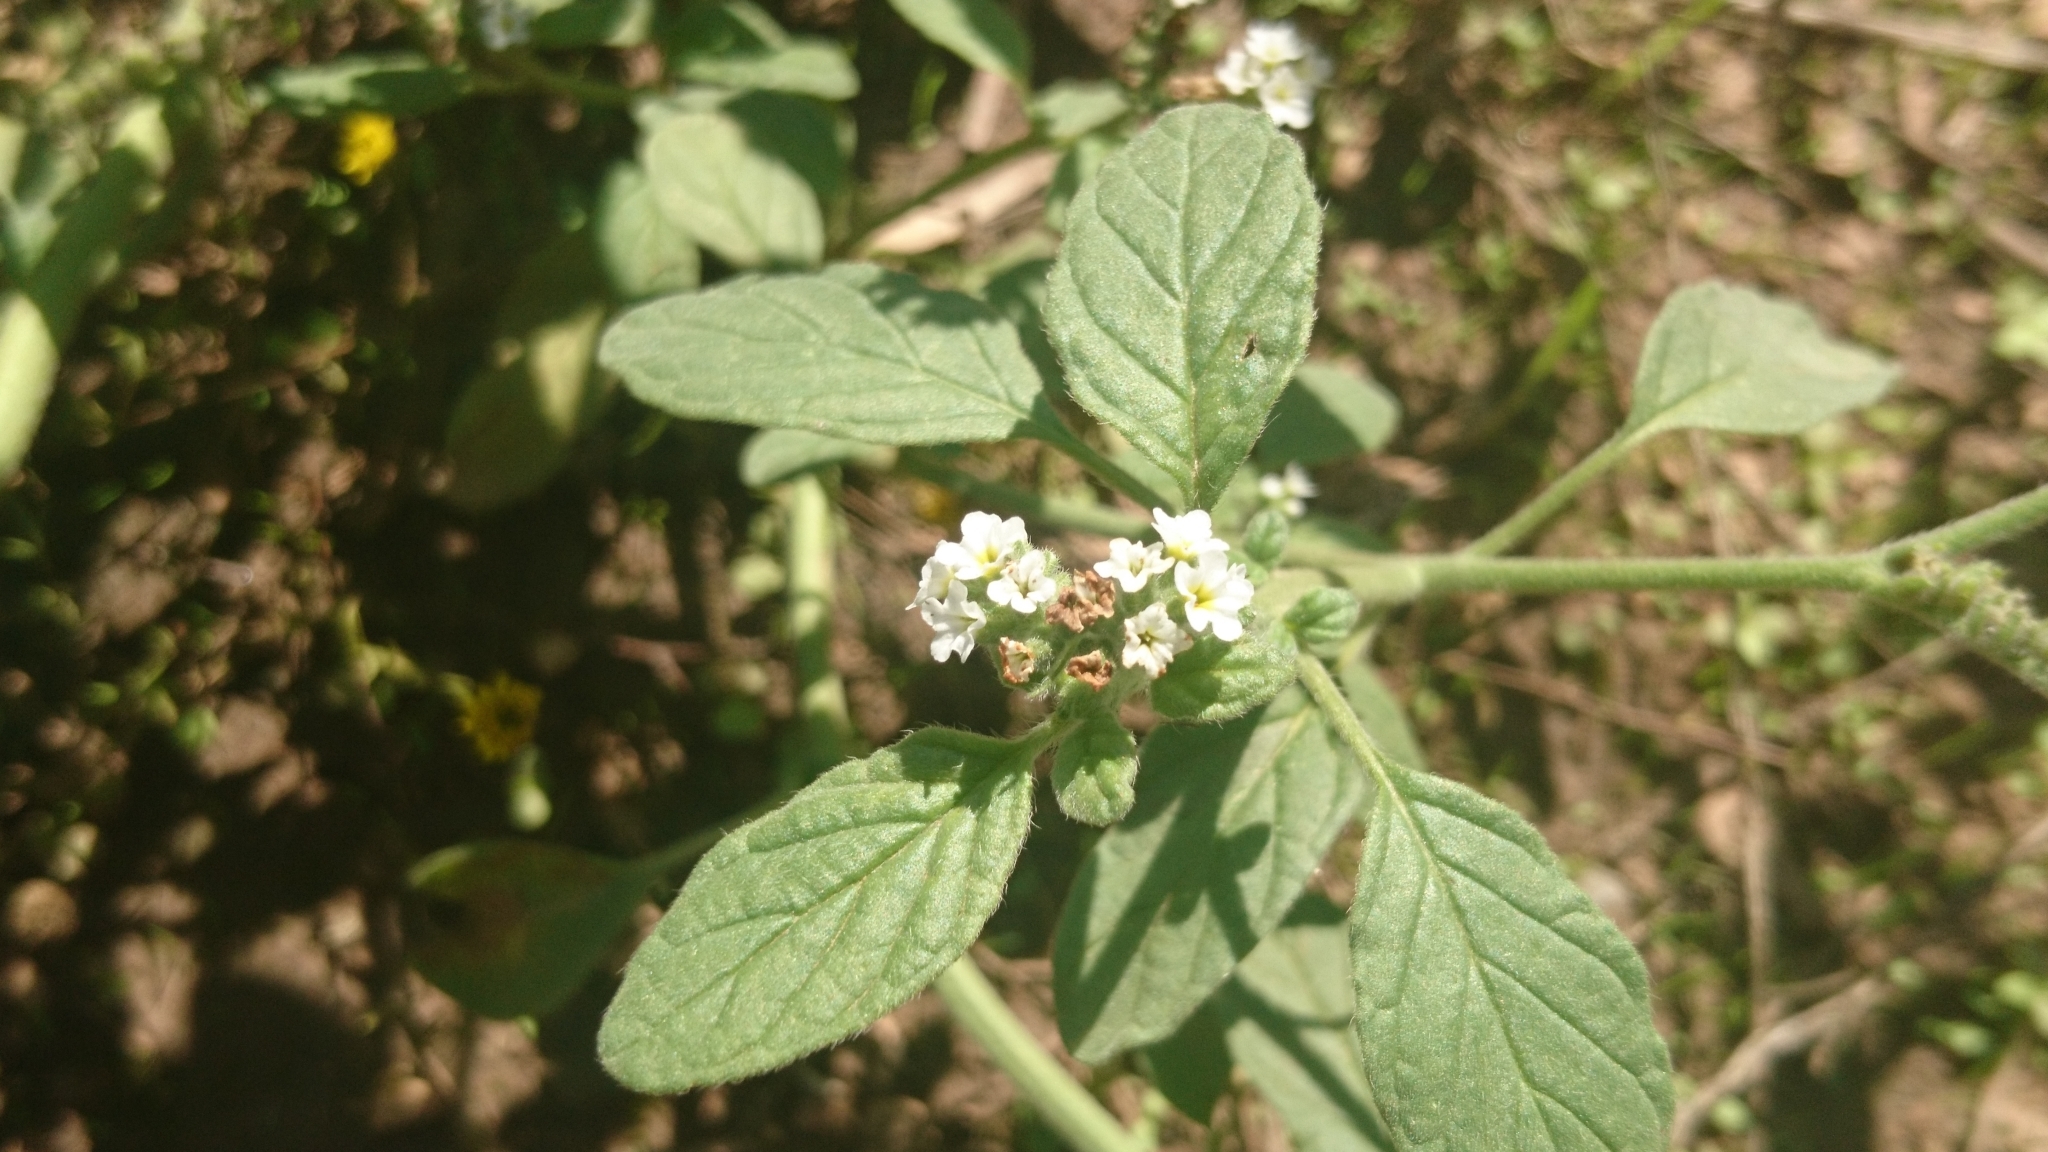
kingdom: Plantae
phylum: Tracheophyta
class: Magnoliopsida
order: Boraginales
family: Heliotropiaceae
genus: Heliotropium
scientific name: Heliotropium europaeum
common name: European heliotrope
